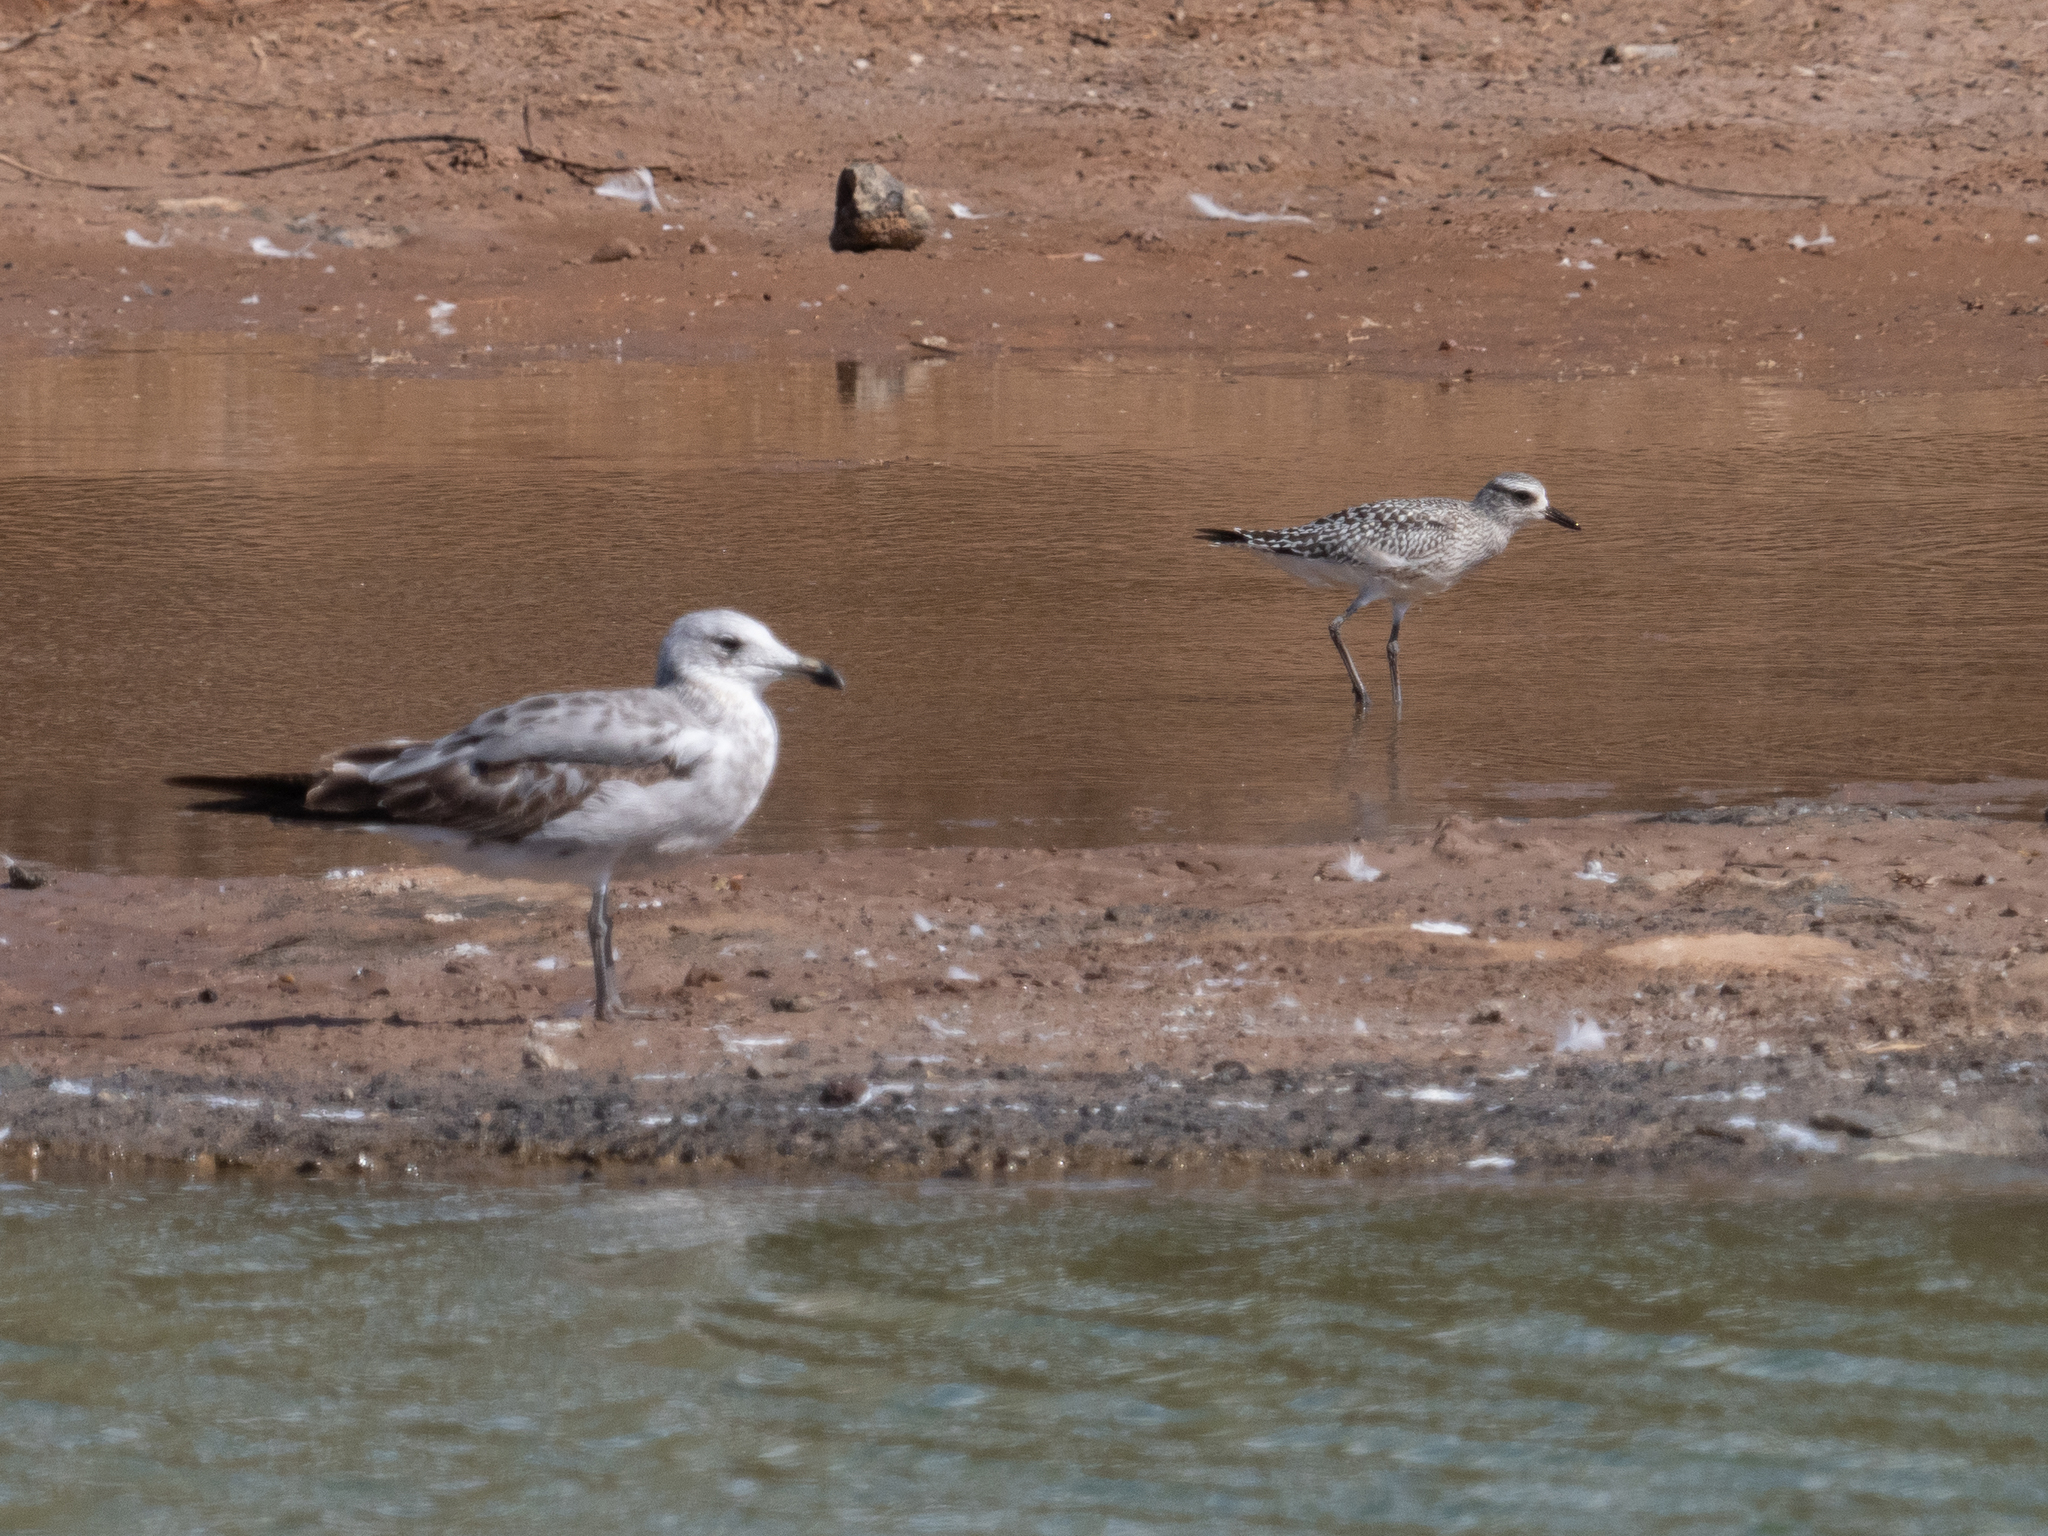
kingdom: Animalia
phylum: Chordata
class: Aves
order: Charadriiformes
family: Charadriidae
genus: Pluvialis
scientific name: Pluvialis squatarola
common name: Grey plover
